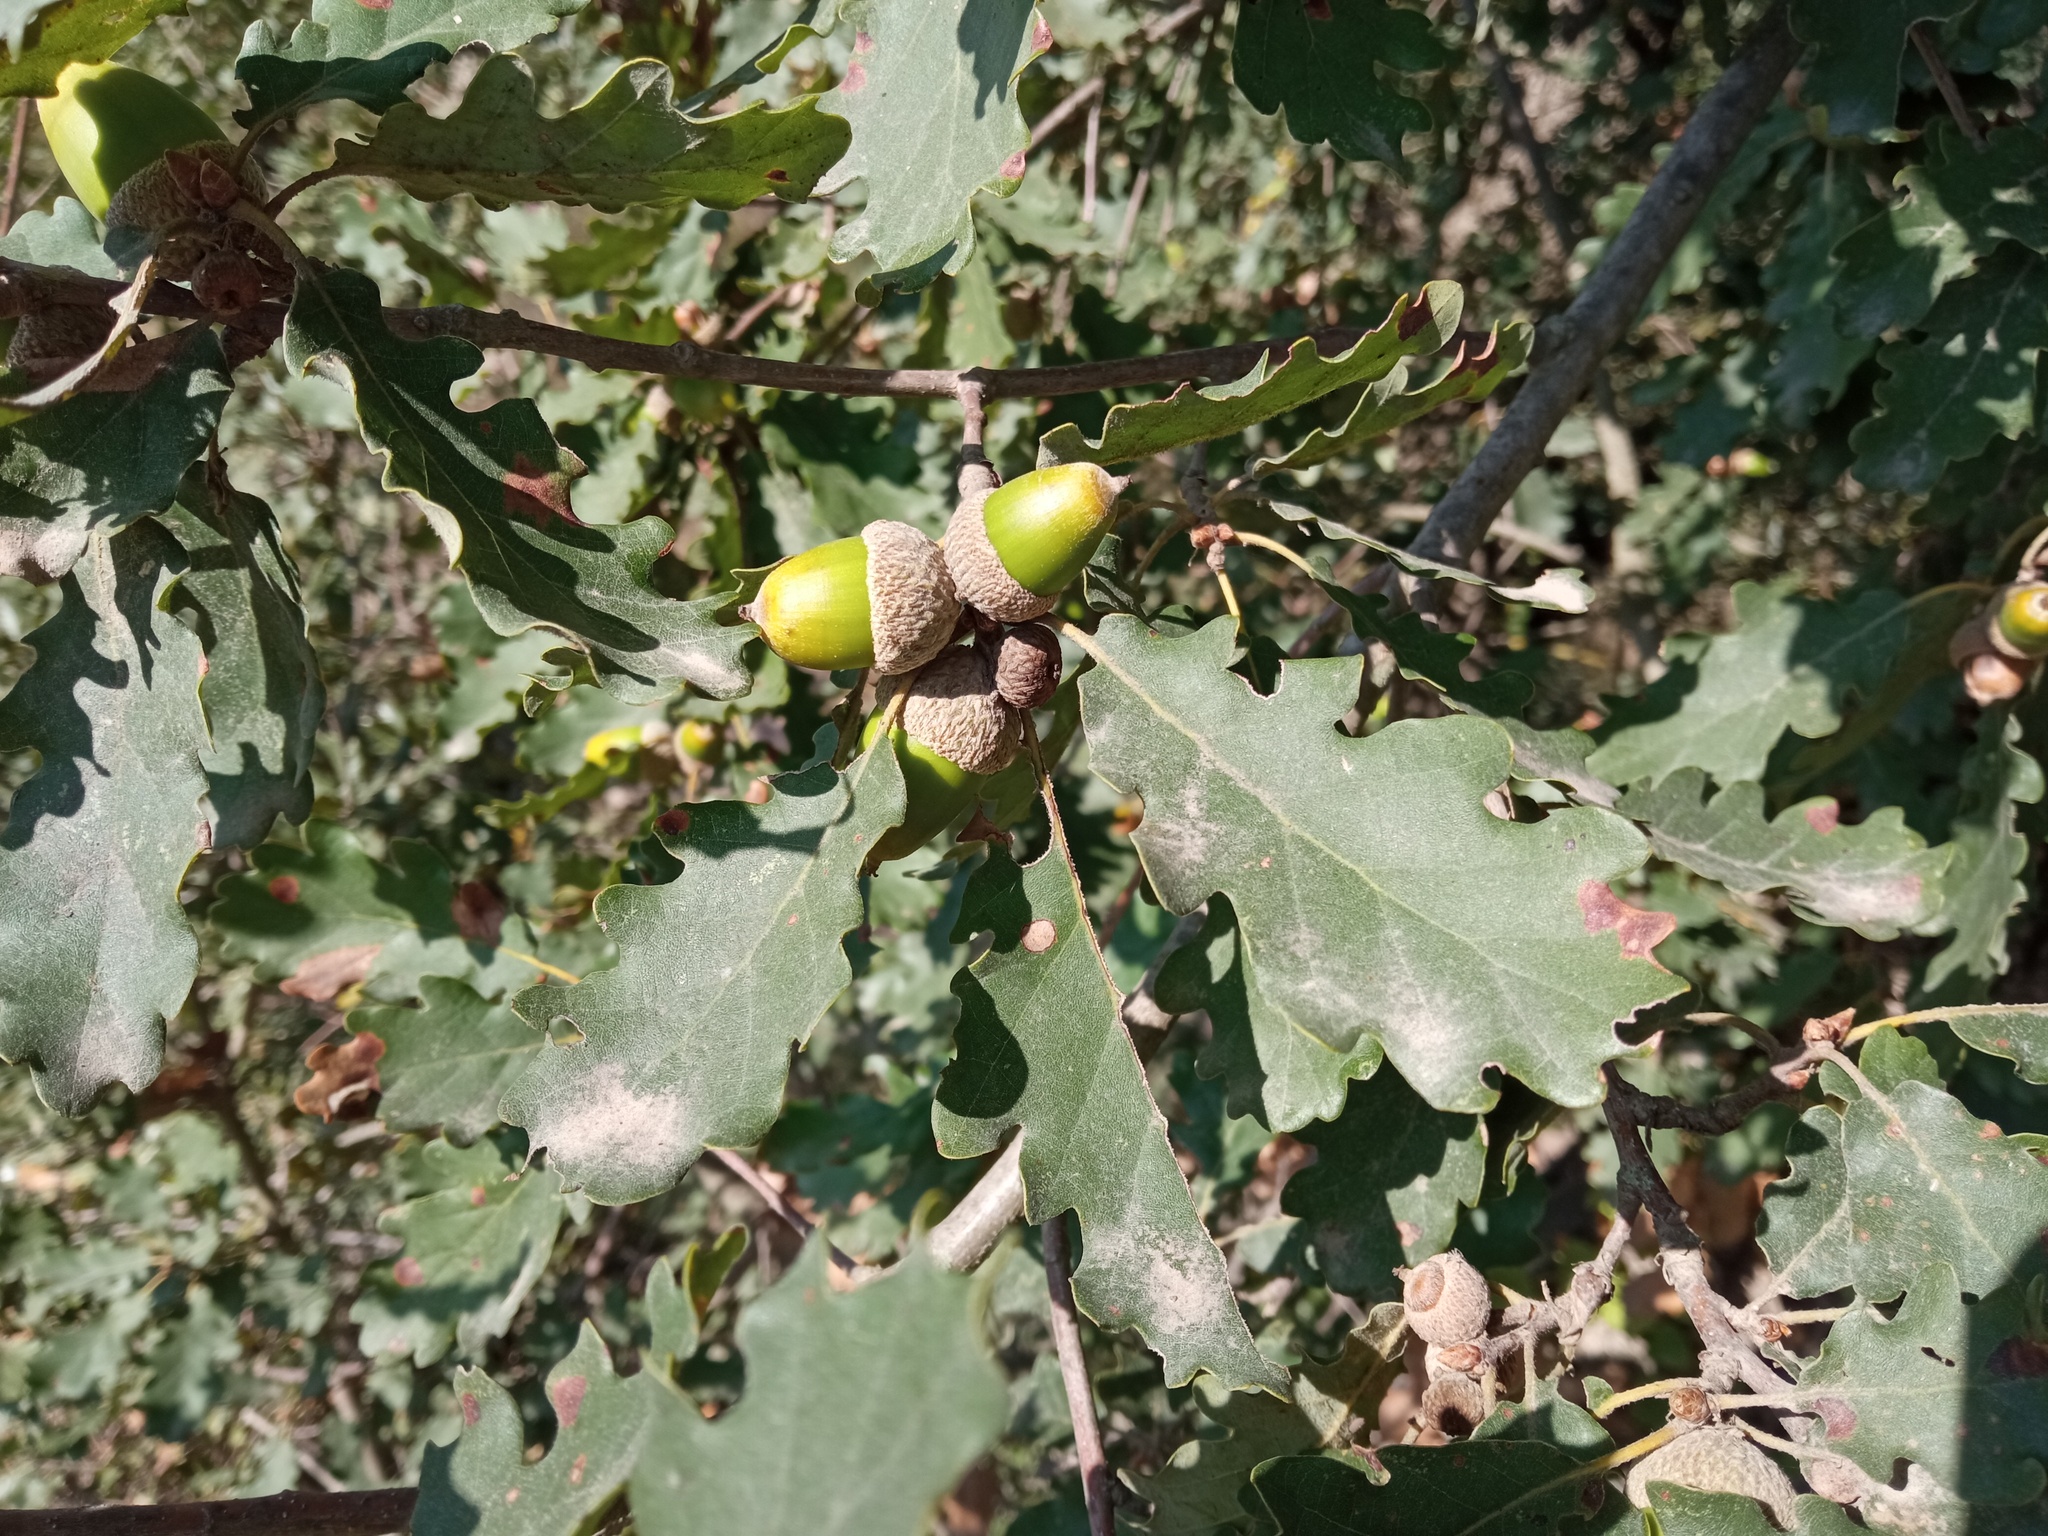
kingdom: Plantae
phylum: Tracheophyta
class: Magnoliopsida
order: Fagales
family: Fagaceae
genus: Quercus
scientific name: Quercus pubescens
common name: Downy oak
